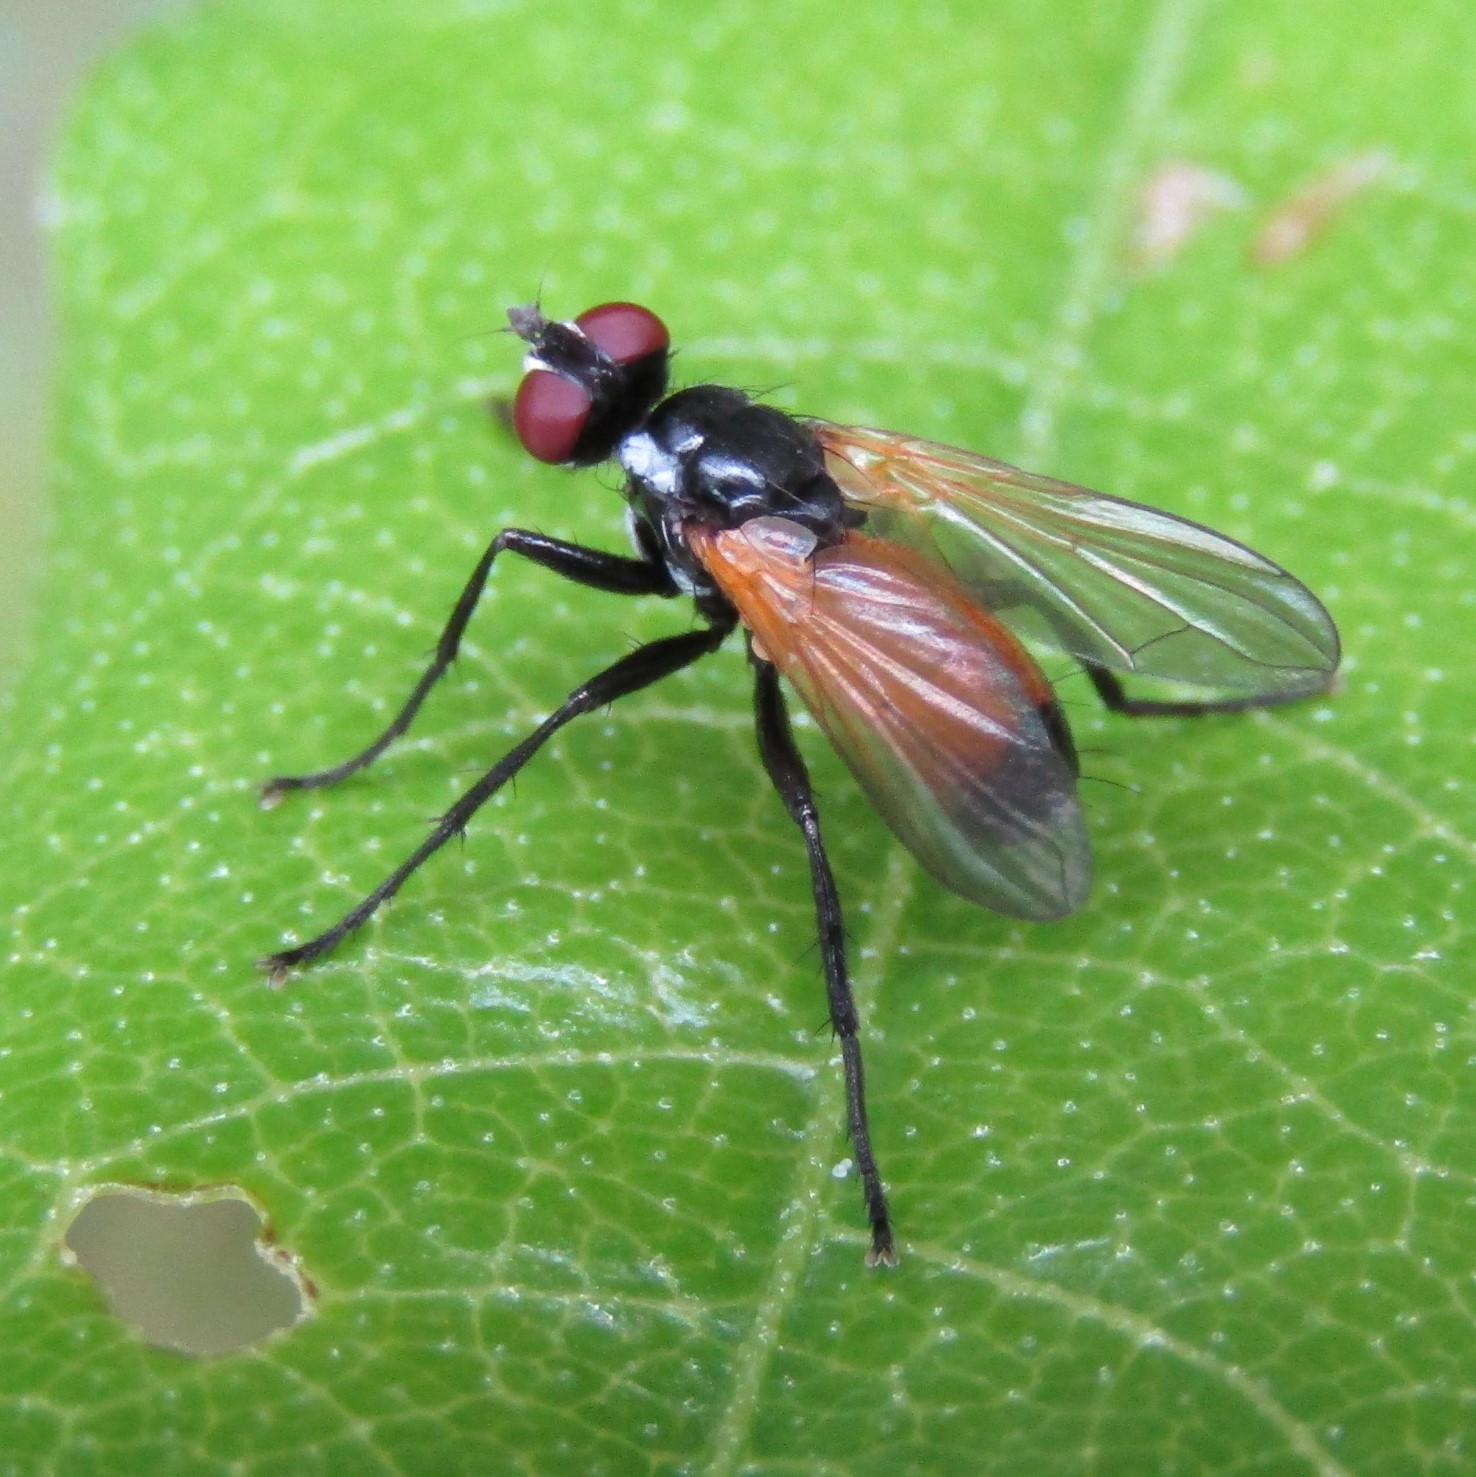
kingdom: Animalia
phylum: Arthropoda
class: Insecta
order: Diptera
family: Tachinidae
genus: Huttonobesseria
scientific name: Huttonobesseria verecunda
